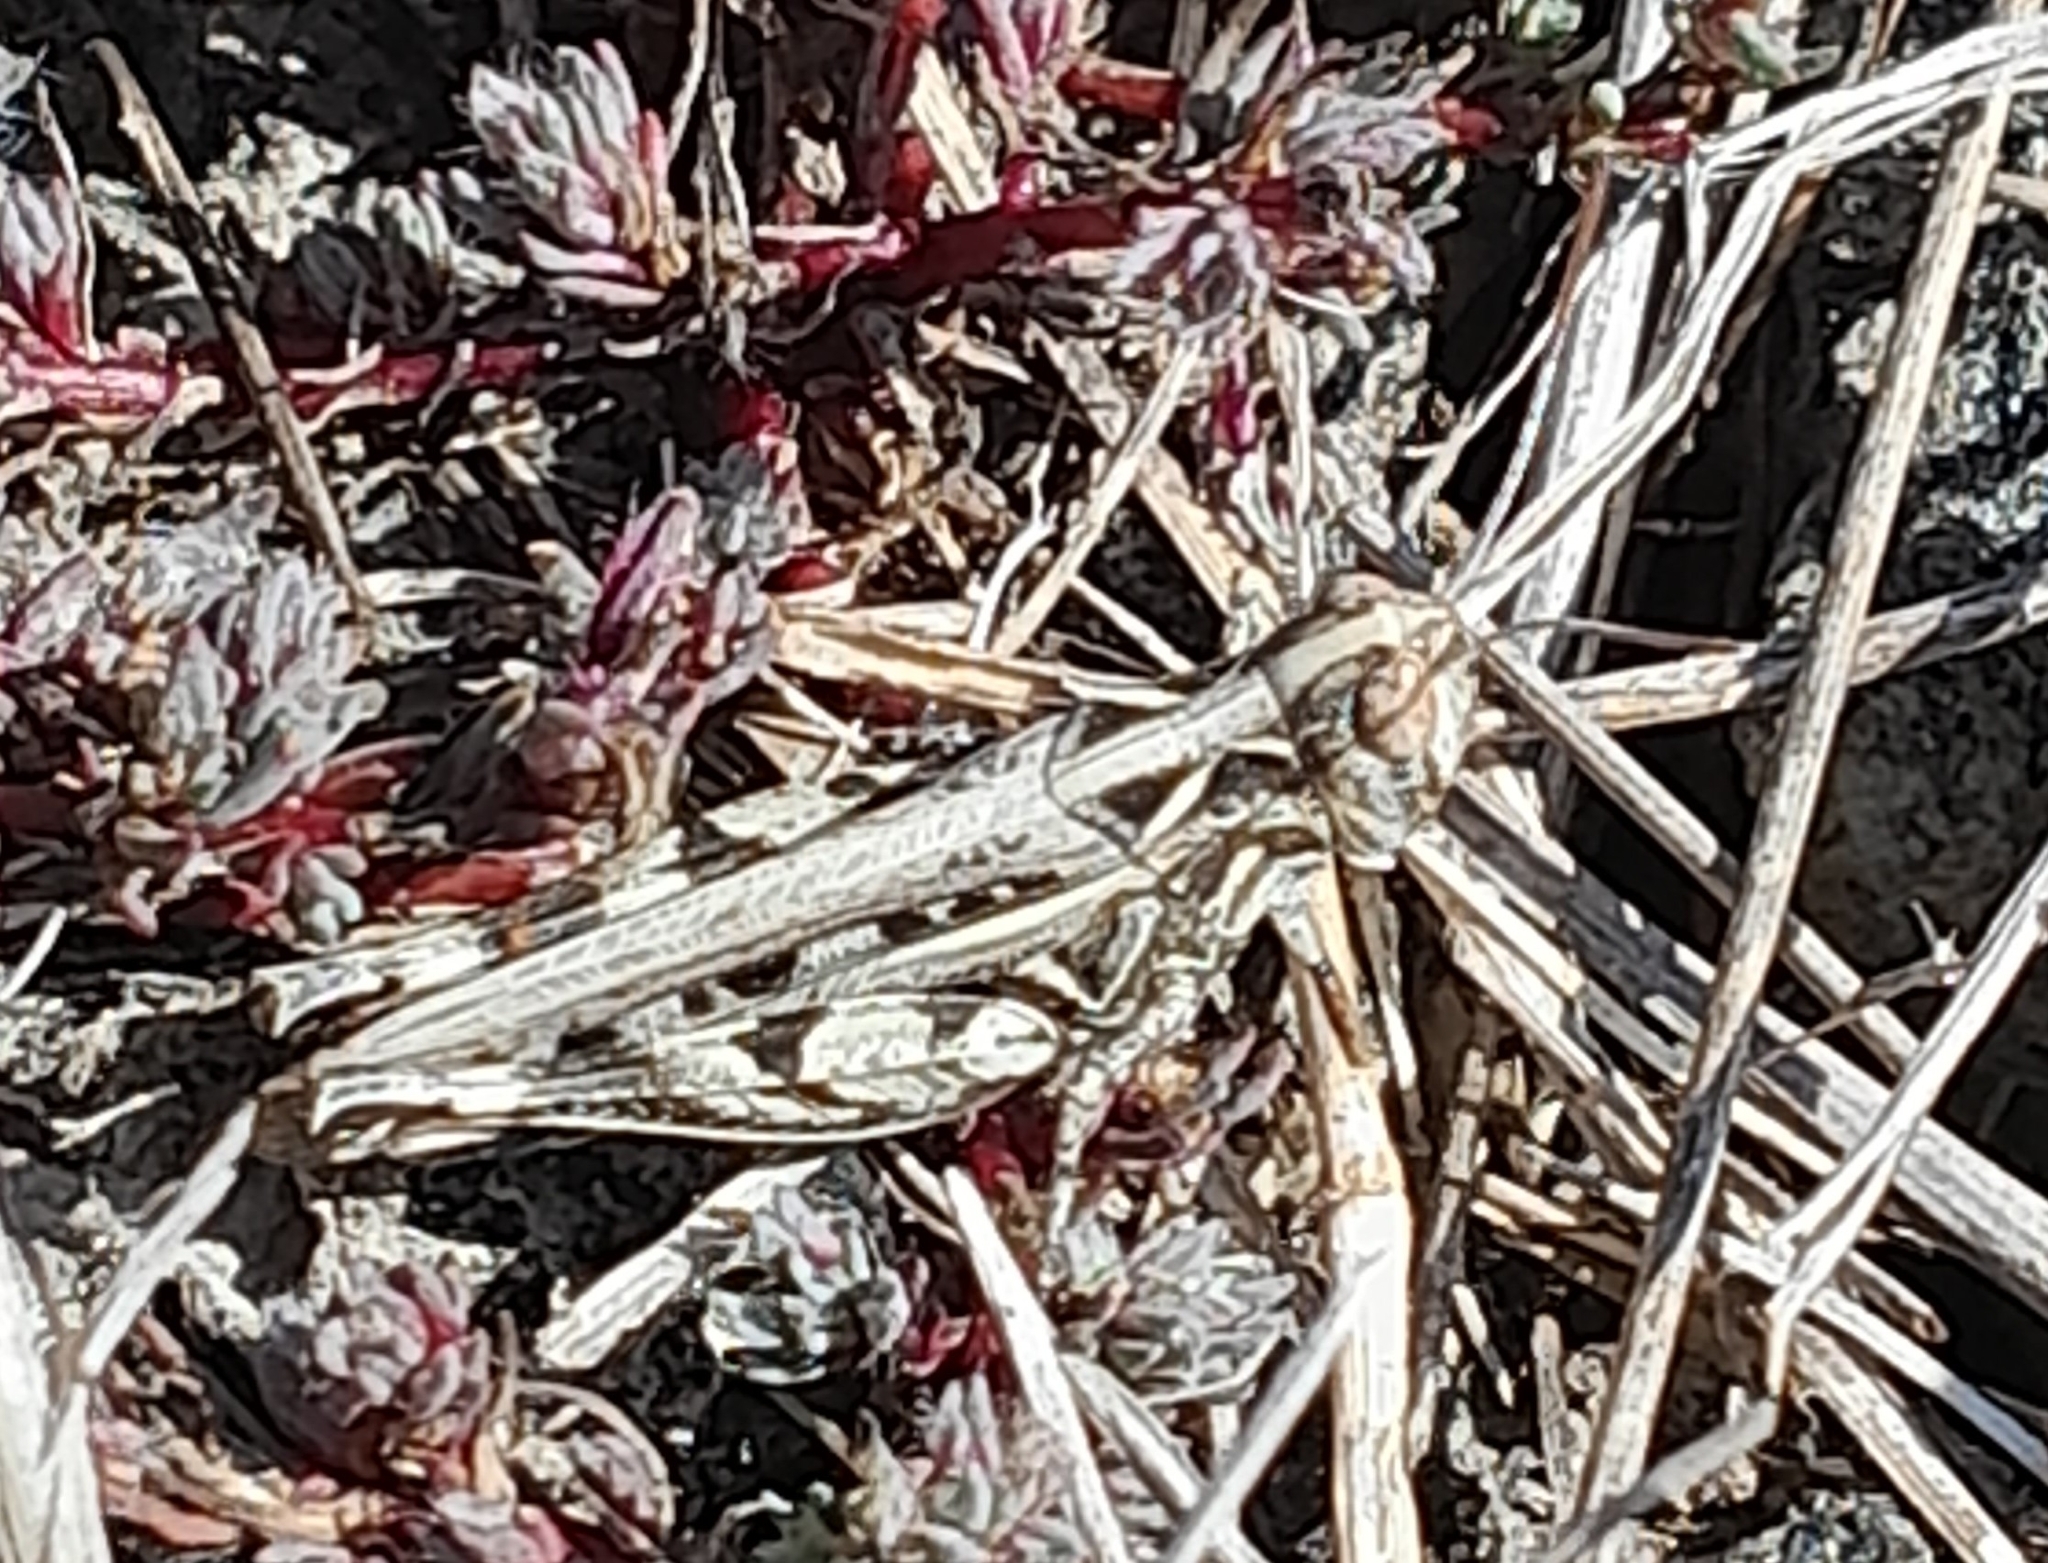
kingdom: Animalia
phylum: Arthropoda
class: Insecta
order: Orthoptera
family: Acrididae
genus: Dociostaurus
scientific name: Dociostaurus brevicollis
